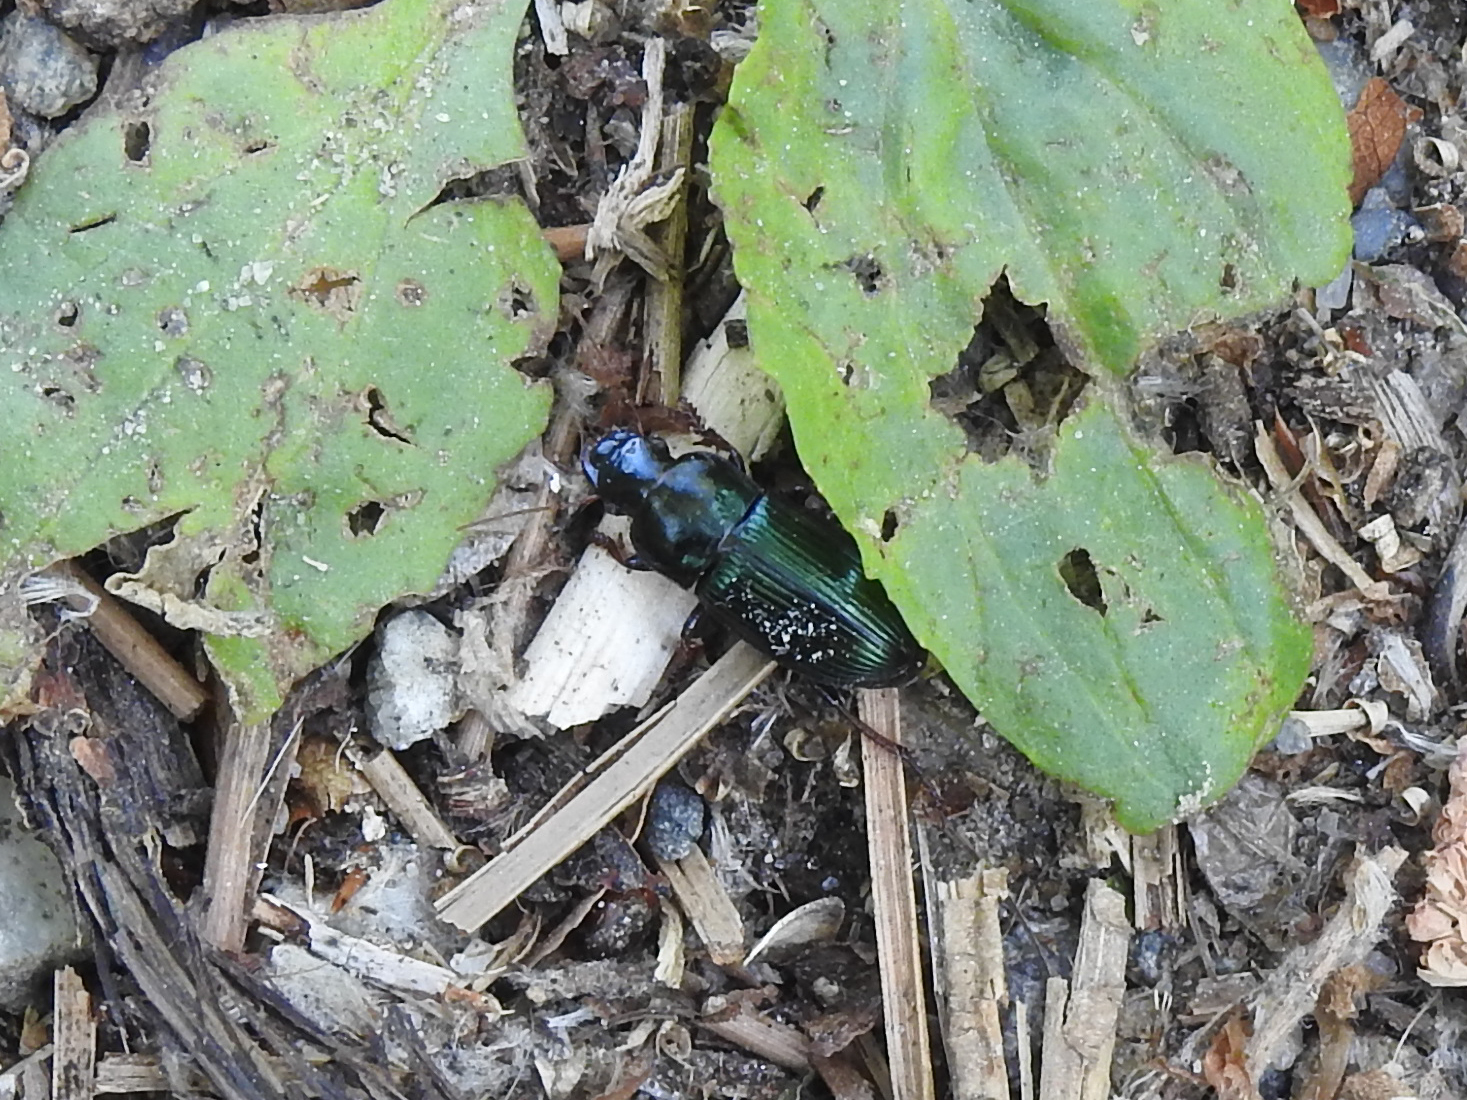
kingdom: Animalia
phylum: Arthropoda
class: Insecta
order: Coleoptera
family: Carabidae
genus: Harpalus
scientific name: Harpalus rubripes
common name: Red-legged harp ground beetle
